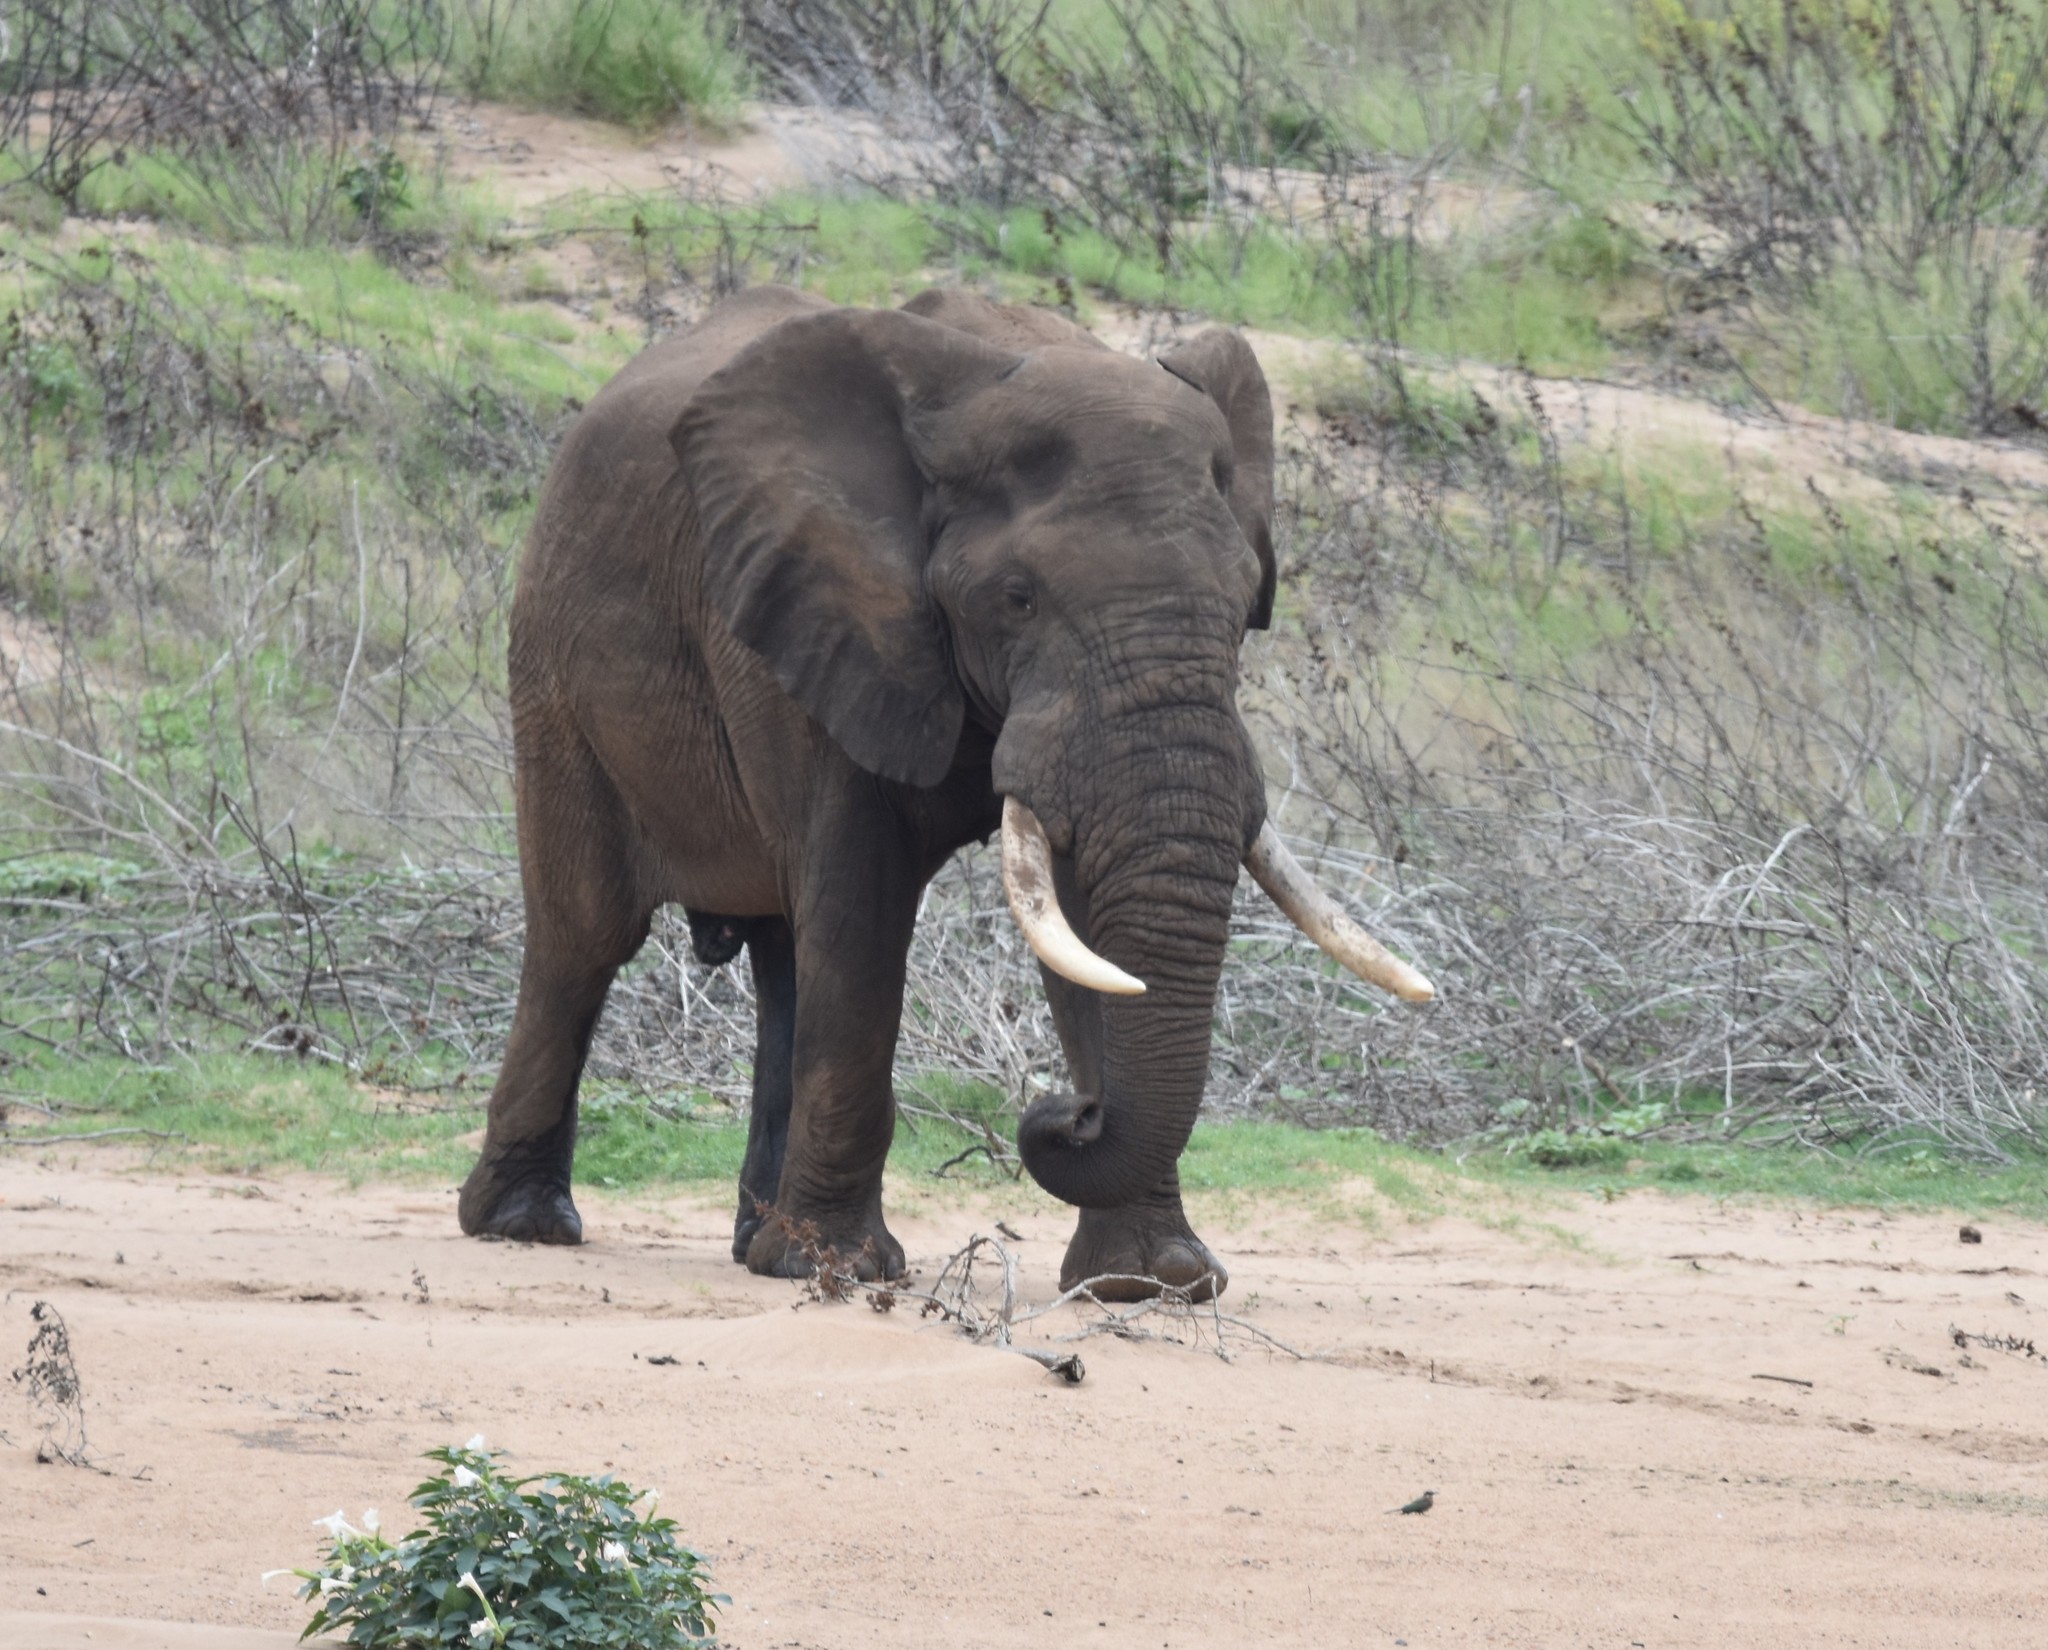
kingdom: Animalia
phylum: Chordata
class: Mammalia
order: Proboscidea
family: Elephantidae
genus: Loxodonta
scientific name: Loxodonta africana
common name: African elephant
